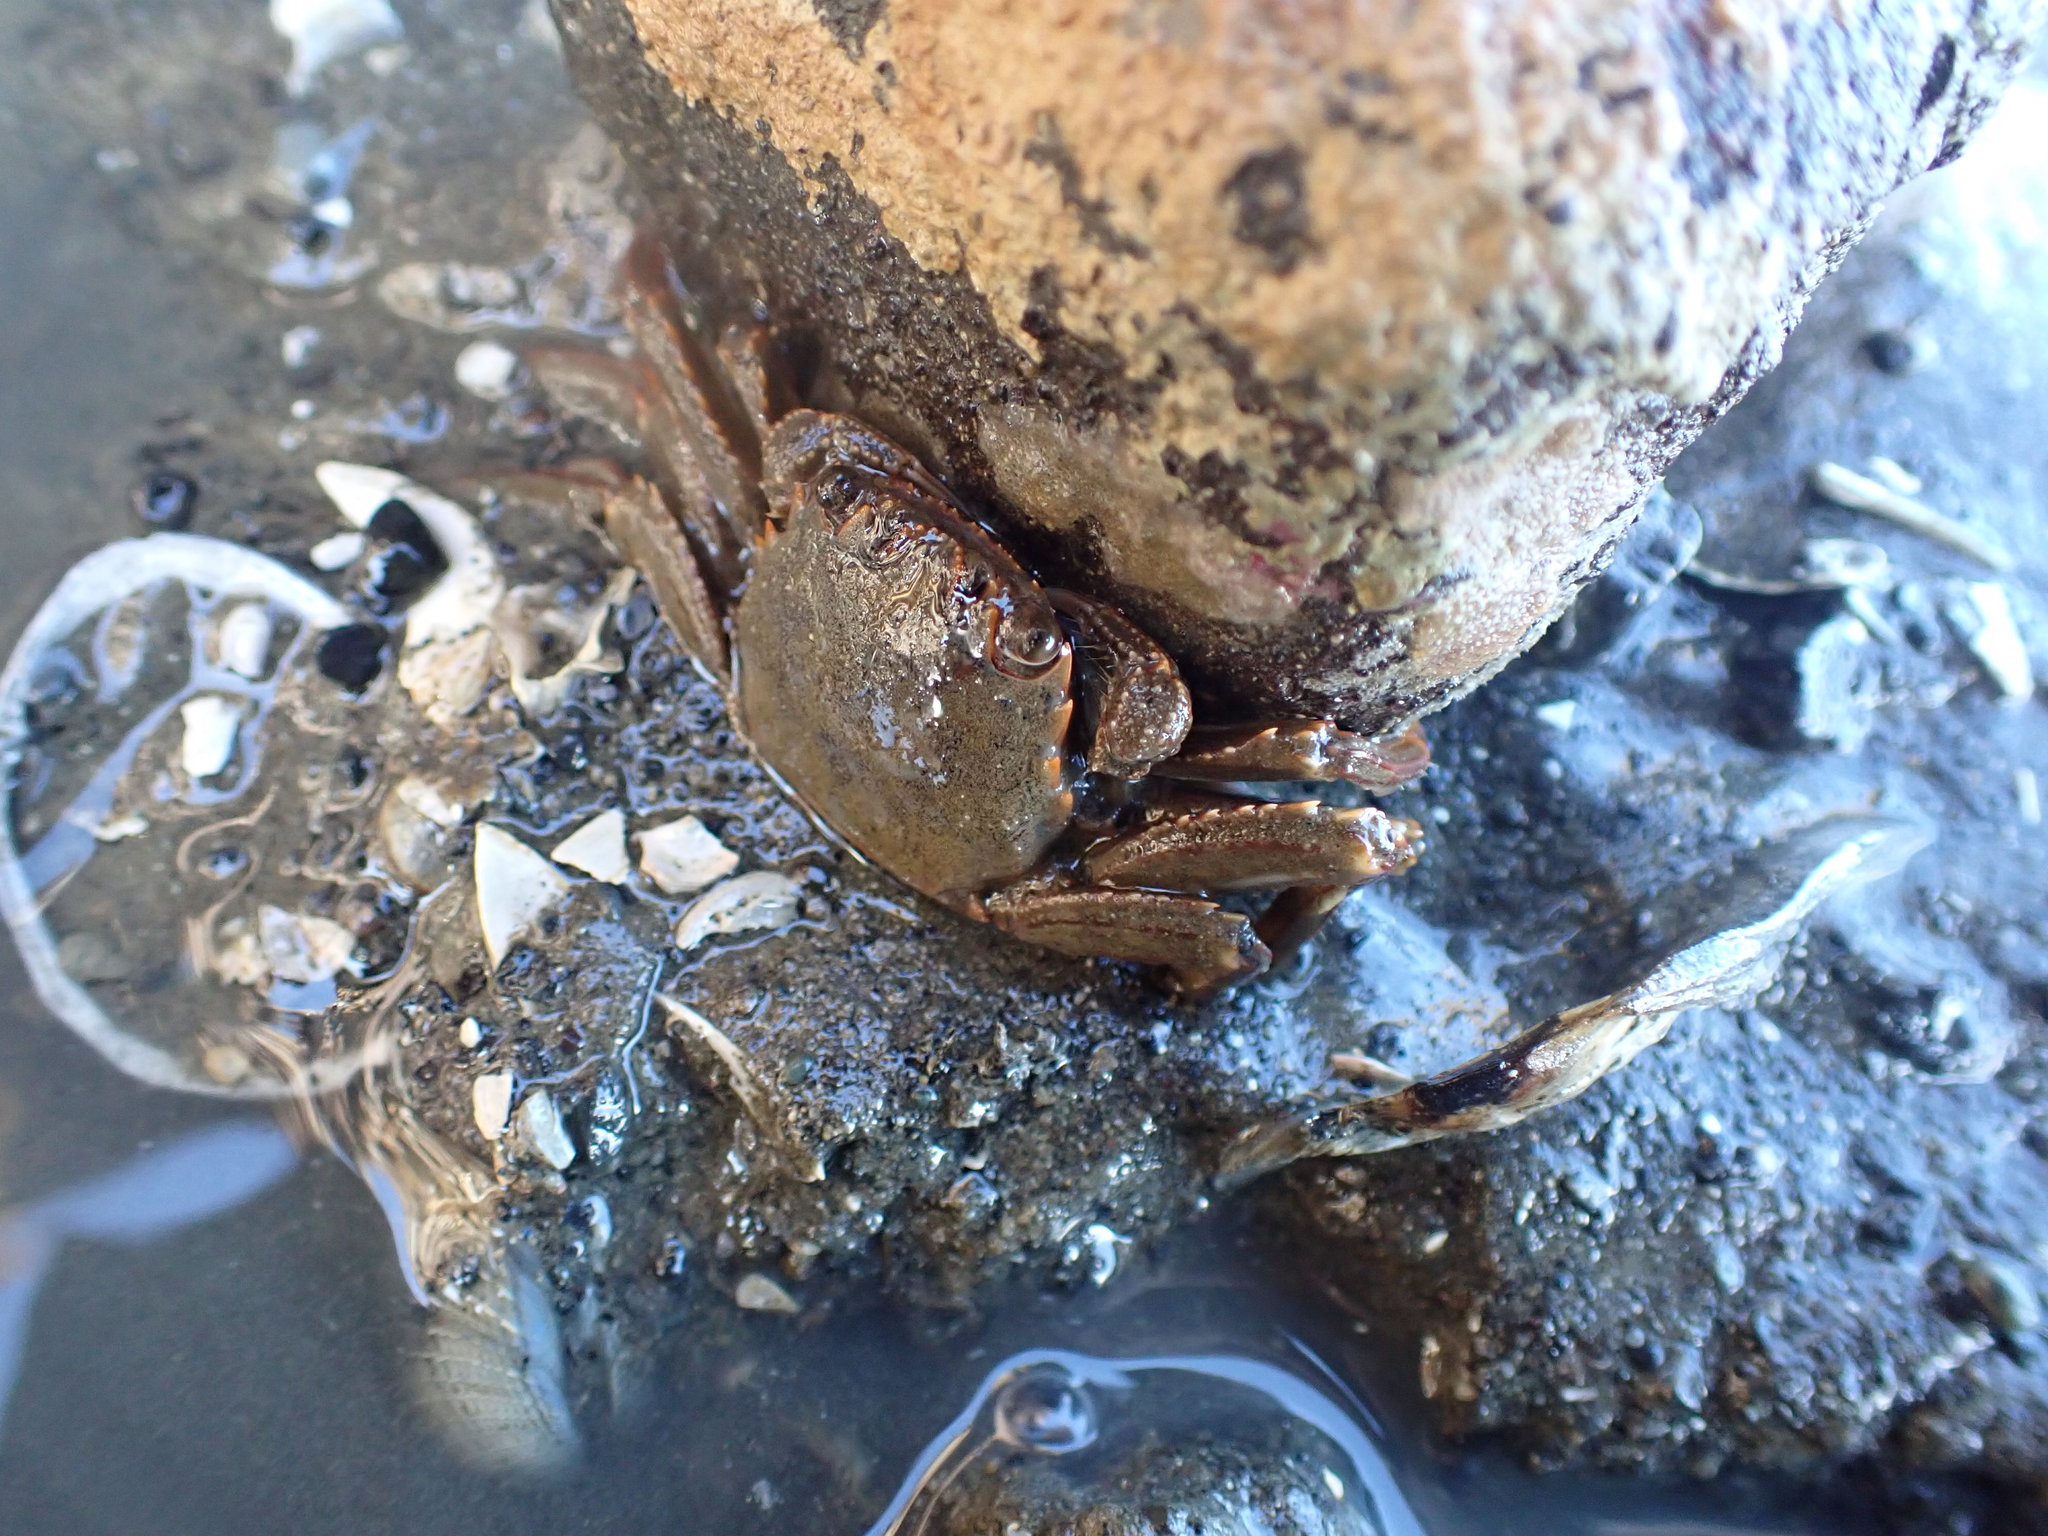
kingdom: Animalia
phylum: Arthropoda
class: Malacostraca
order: Decapoda
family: Plagusiidae
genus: Guinusia
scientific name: Guinusia chabrus
